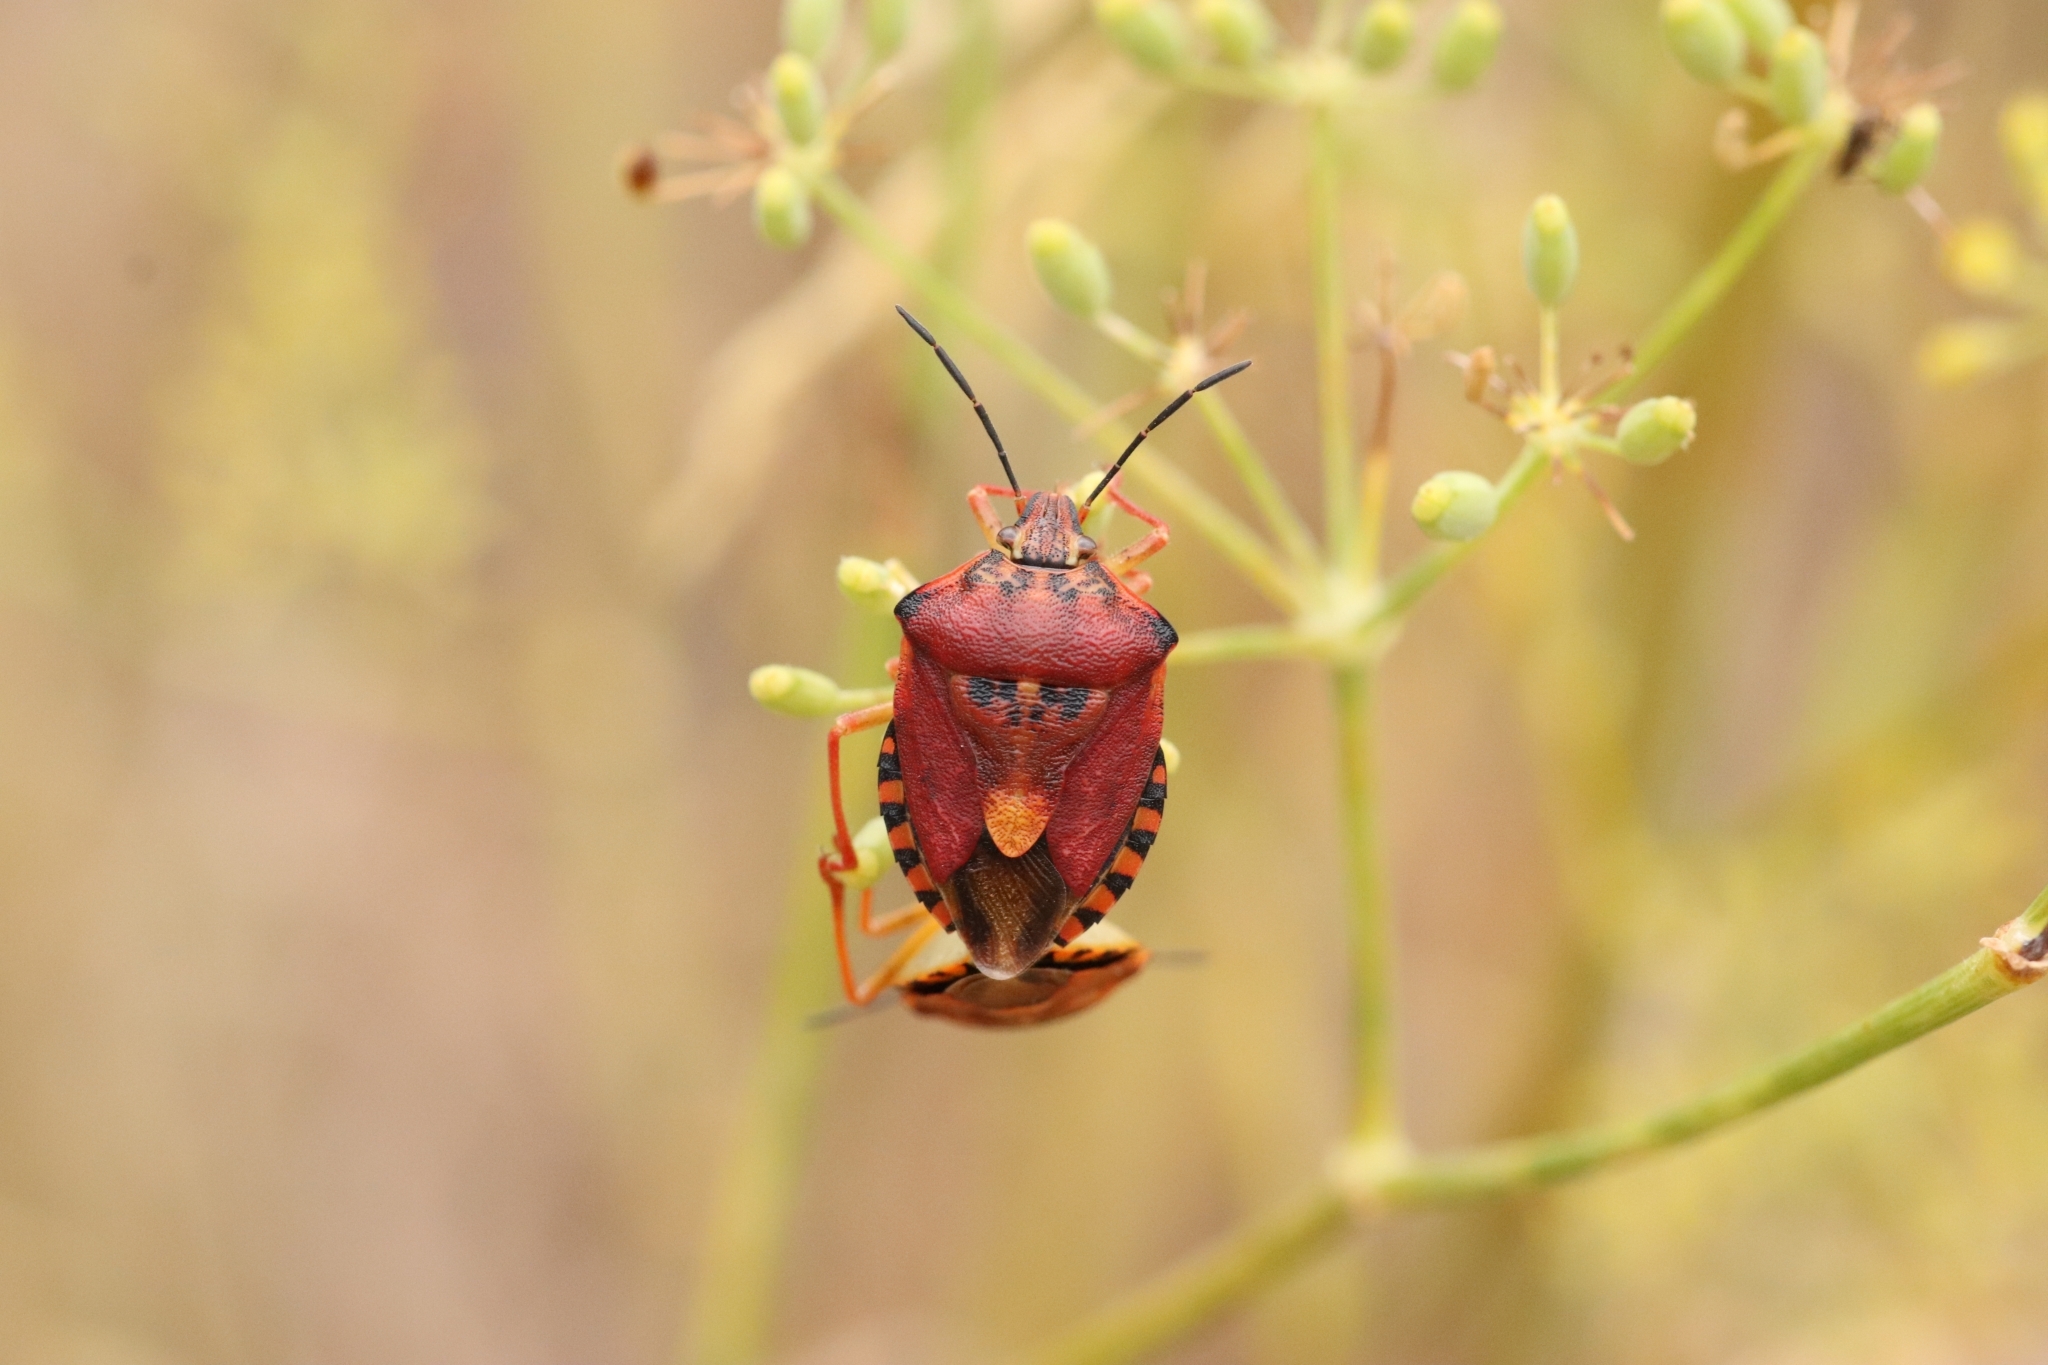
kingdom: Animalia
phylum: Arthropoda
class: Insecta
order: Hemiptera
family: Pentatomidae
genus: Carpocoris
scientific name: Carpocoris purpureipennis
